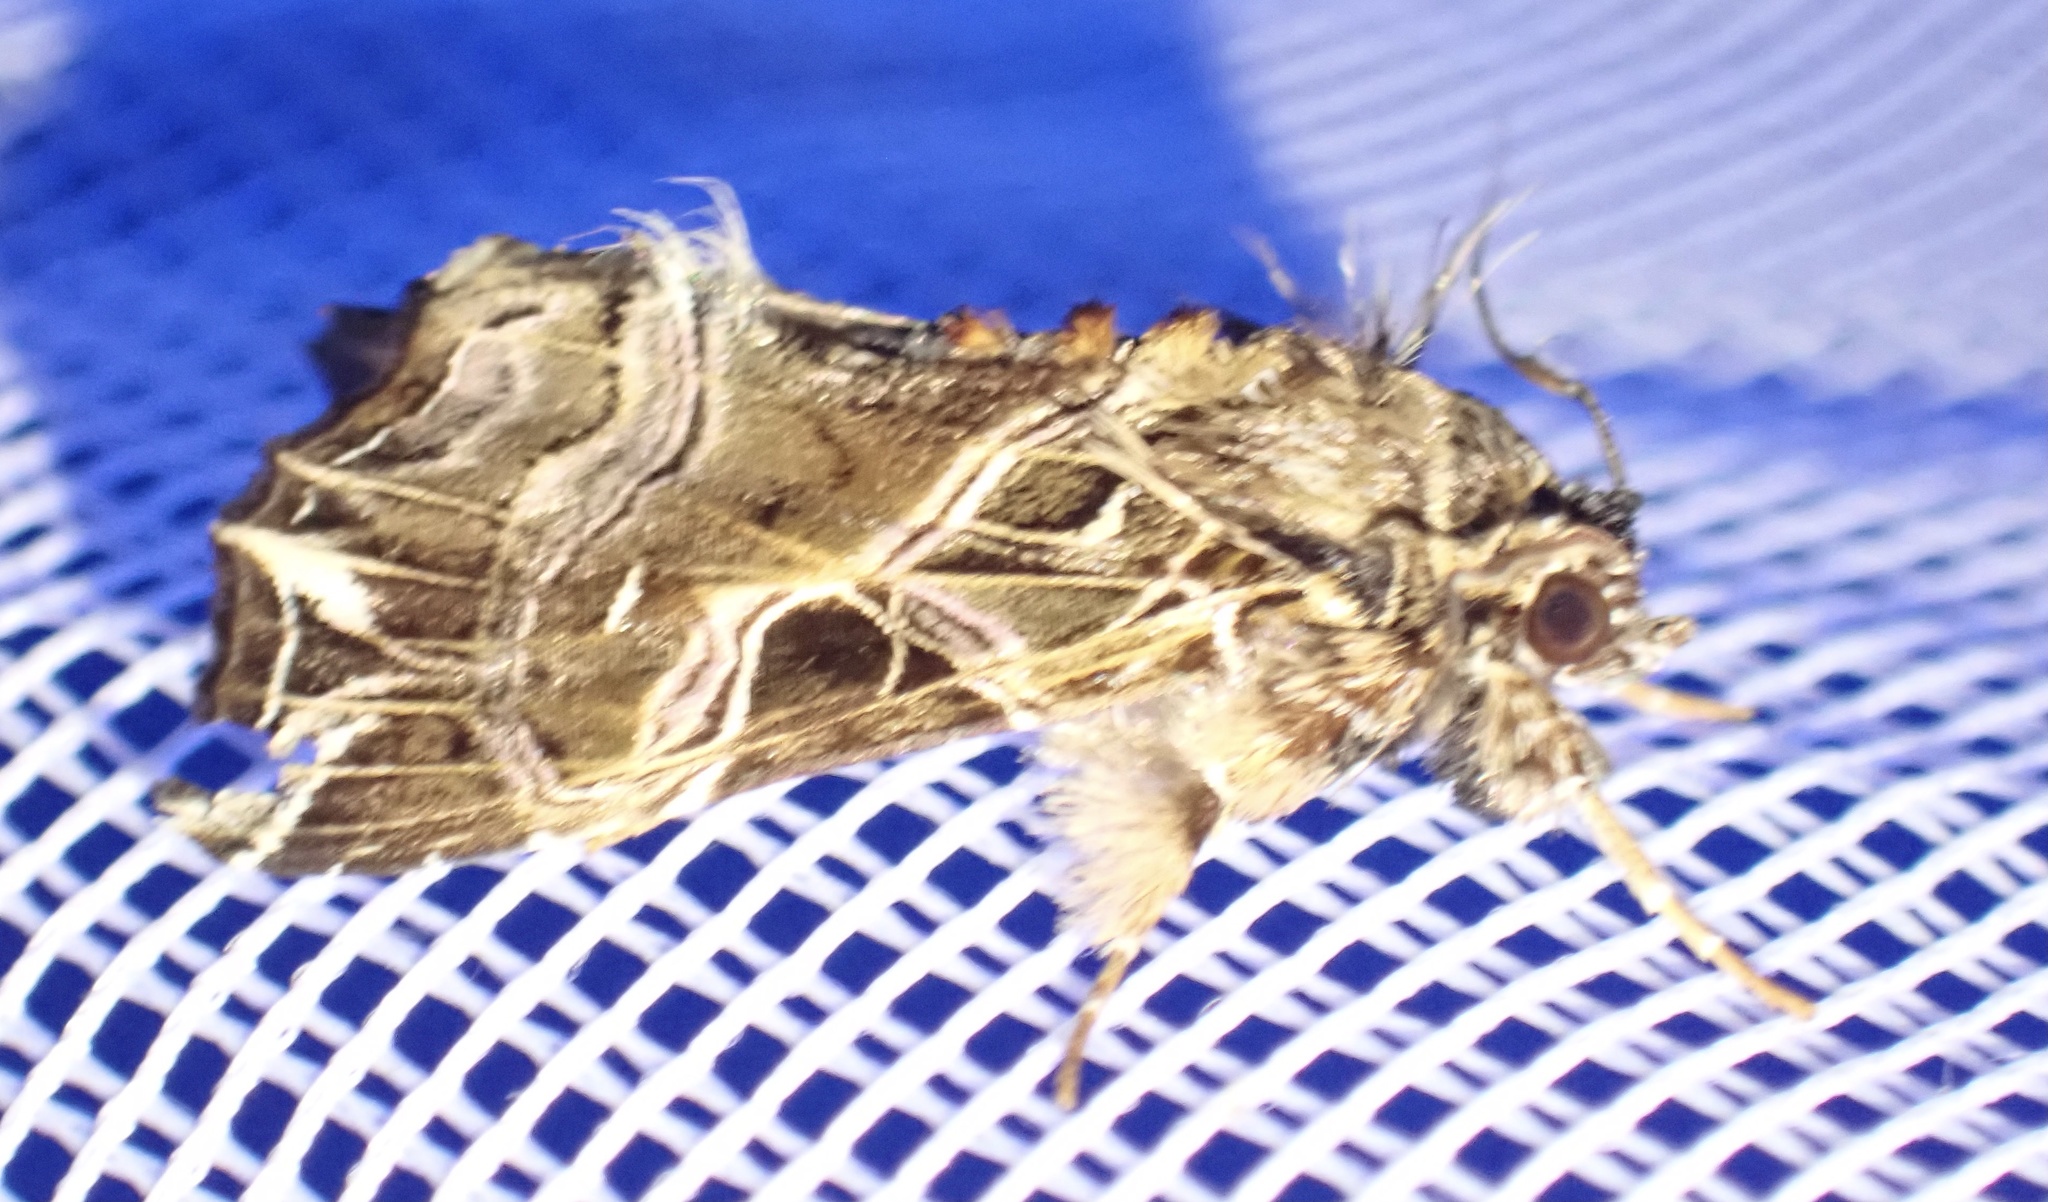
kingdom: Animalia
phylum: Arthropoda
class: Insecta
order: Lepidoptera
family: Noctuidae
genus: Callopistria
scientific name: Callopistria maillardi
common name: Cutworm
